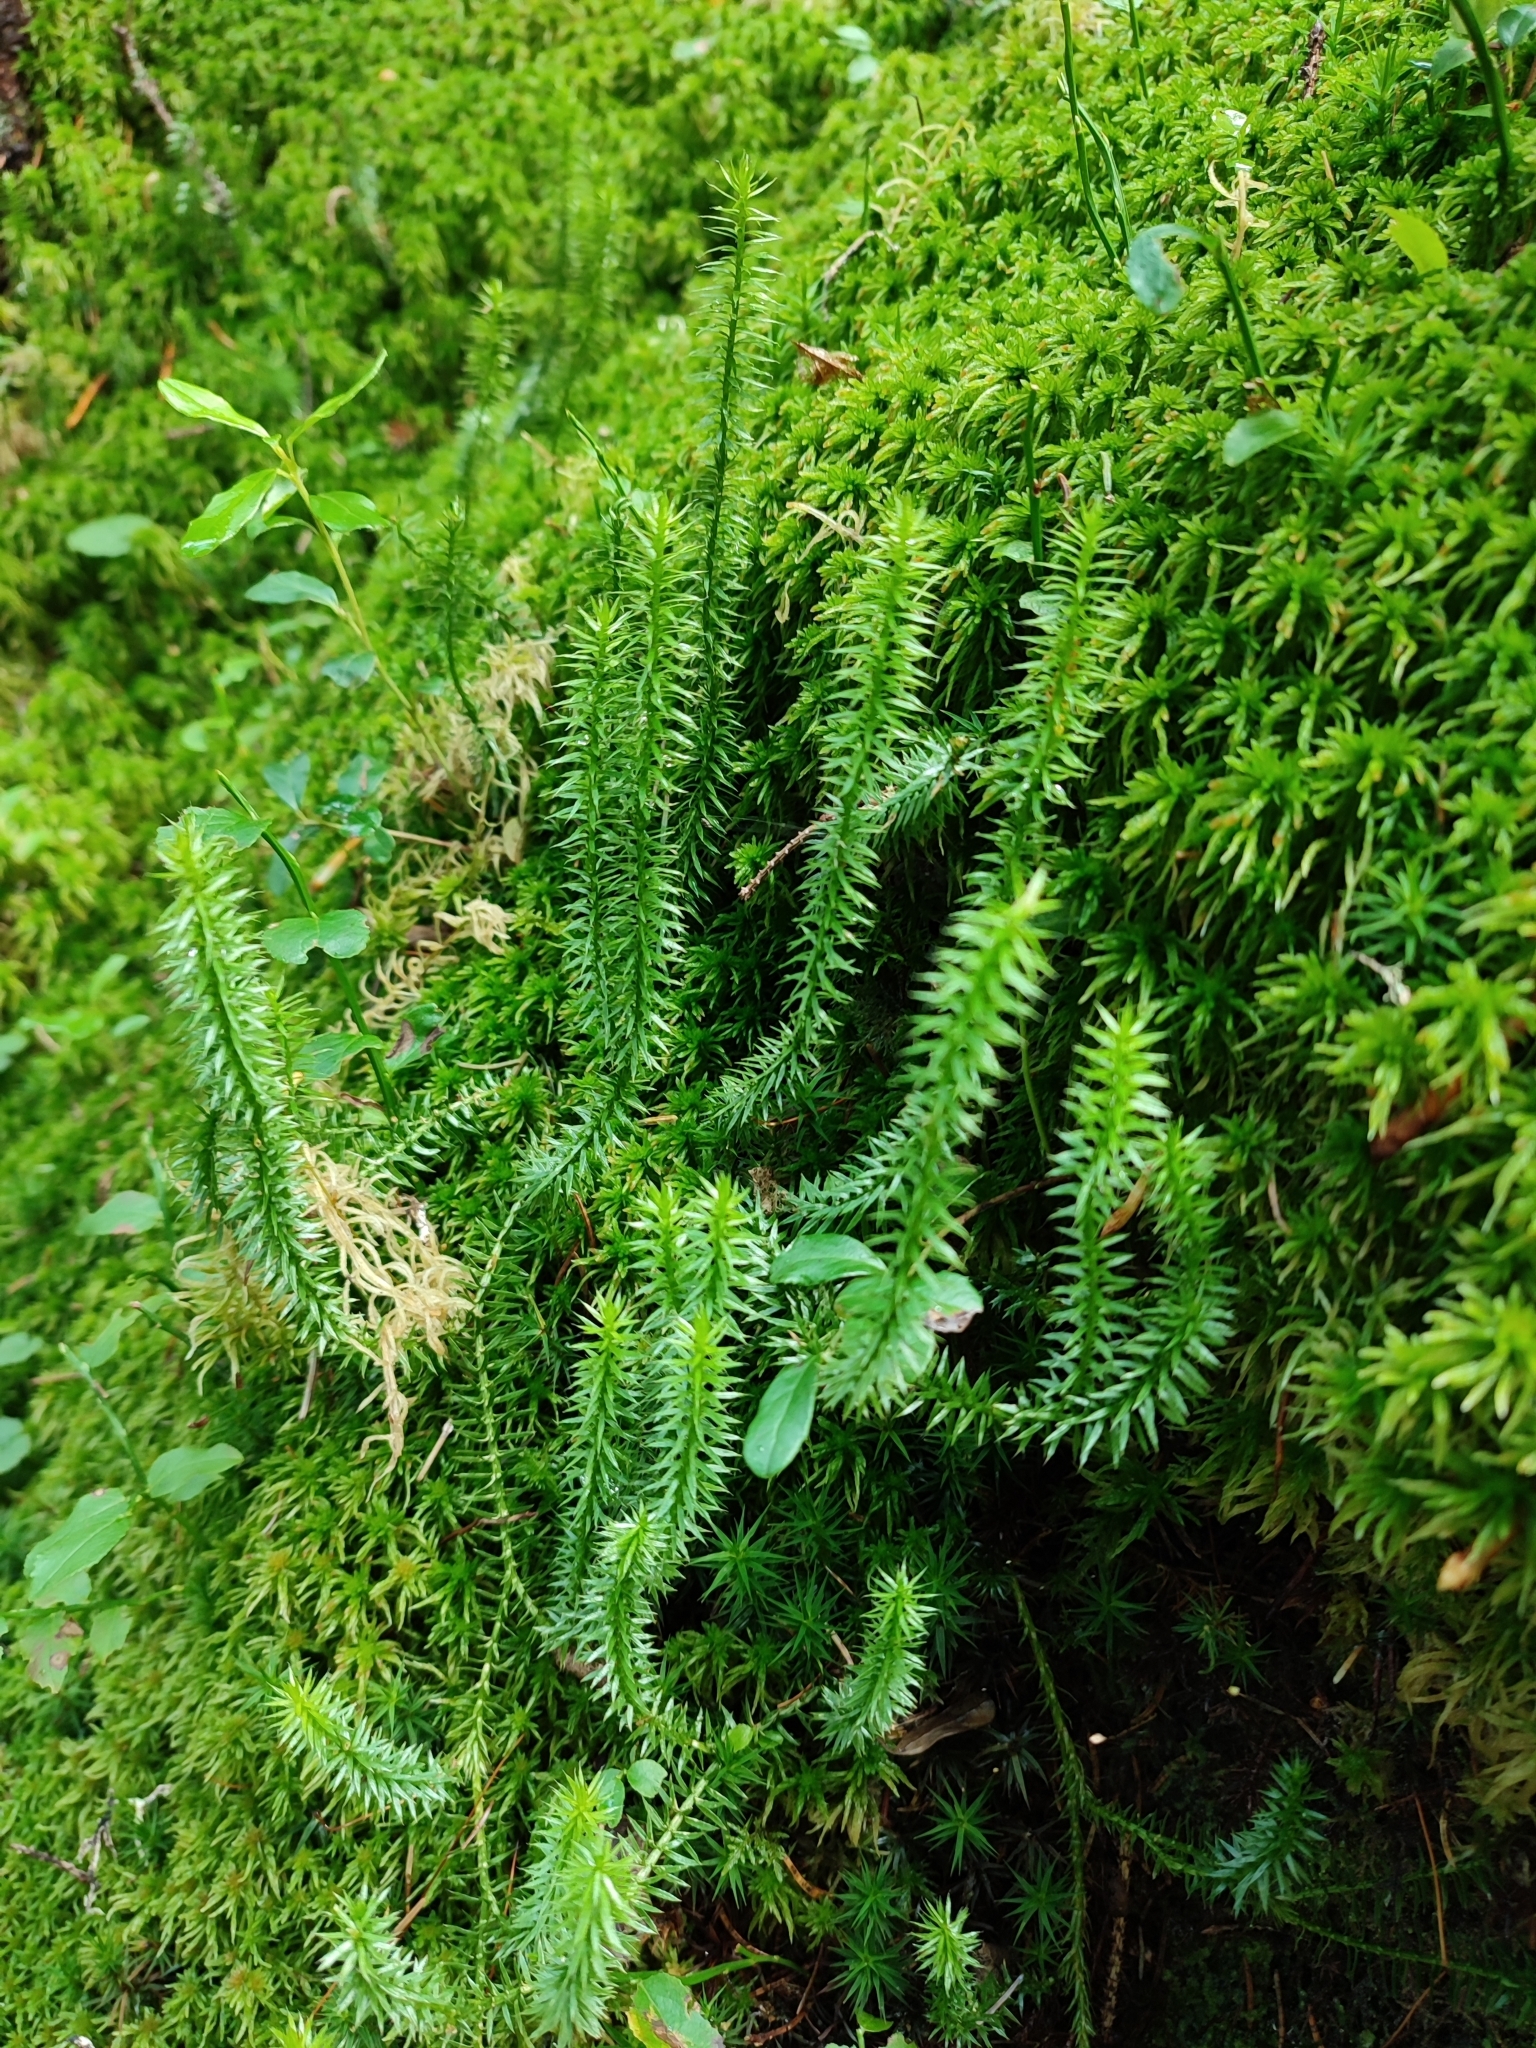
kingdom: Plantae
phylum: Tracheophyta
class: Lycopodiopsida
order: Lycopodiales
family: Lycopodiaceae
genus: Spinulum
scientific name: Spinulum annotinum
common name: Interrupted club-moss
